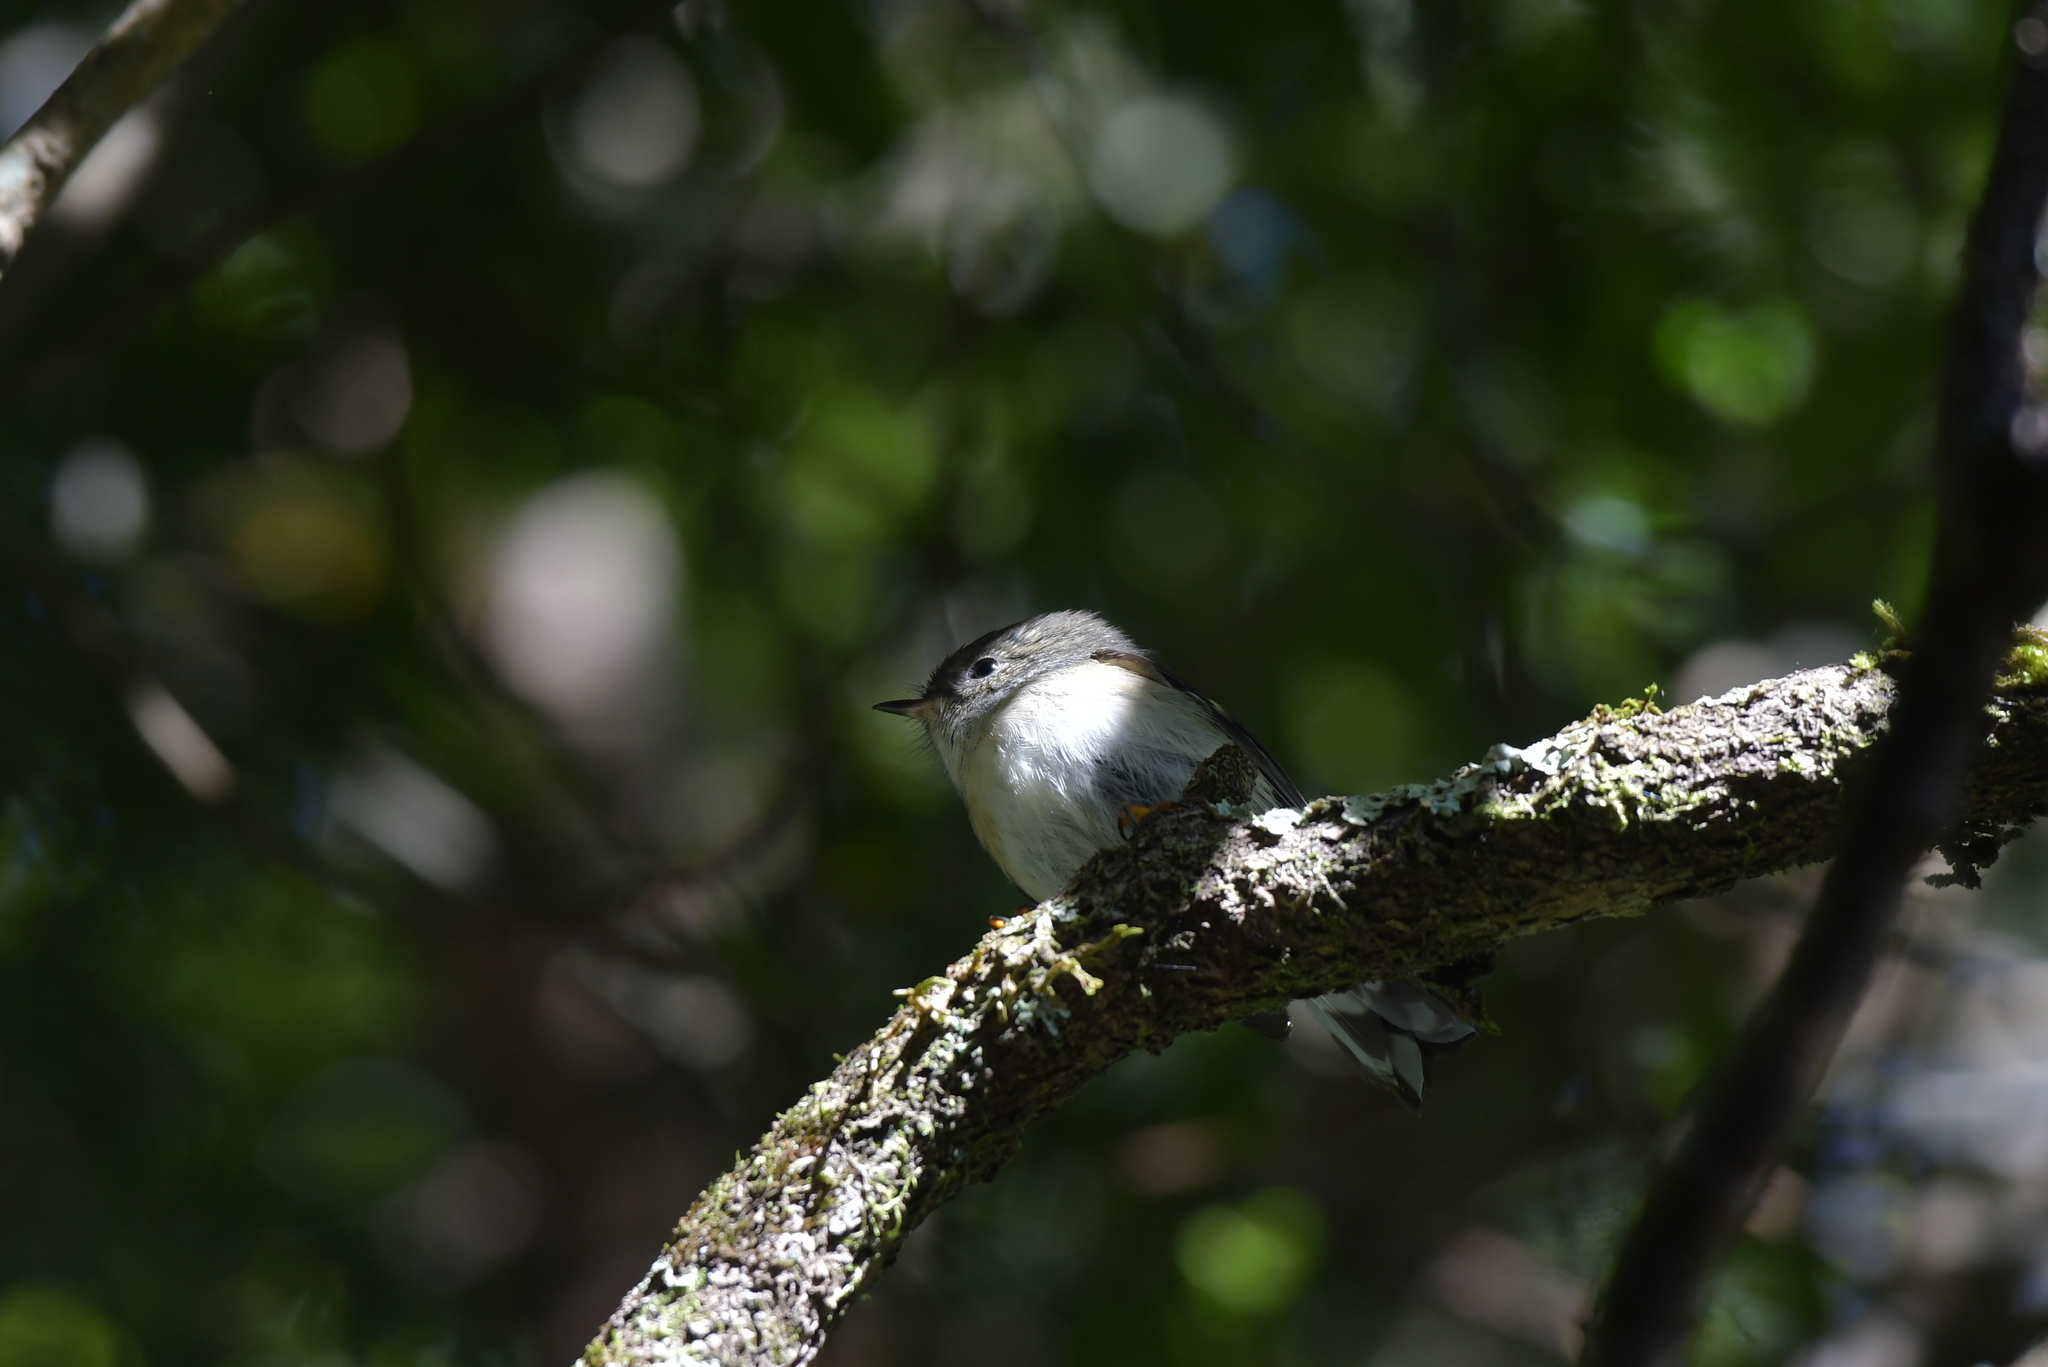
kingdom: Animalia
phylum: Chordata
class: Aves
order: Passeriformes
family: Petroicidae
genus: Petroica
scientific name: Petroica macrocephala
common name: Tomtit
